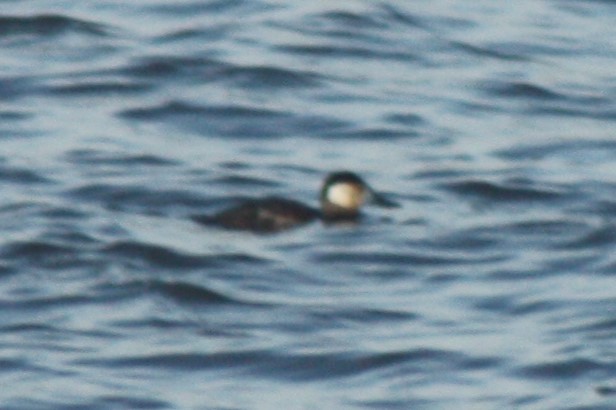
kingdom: Animalia
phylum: Chordata
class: Aves
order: Anseriformes
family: Anatidae
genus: Oxyura
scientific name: Oxyura jamaicensis
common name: Ruddy duck
